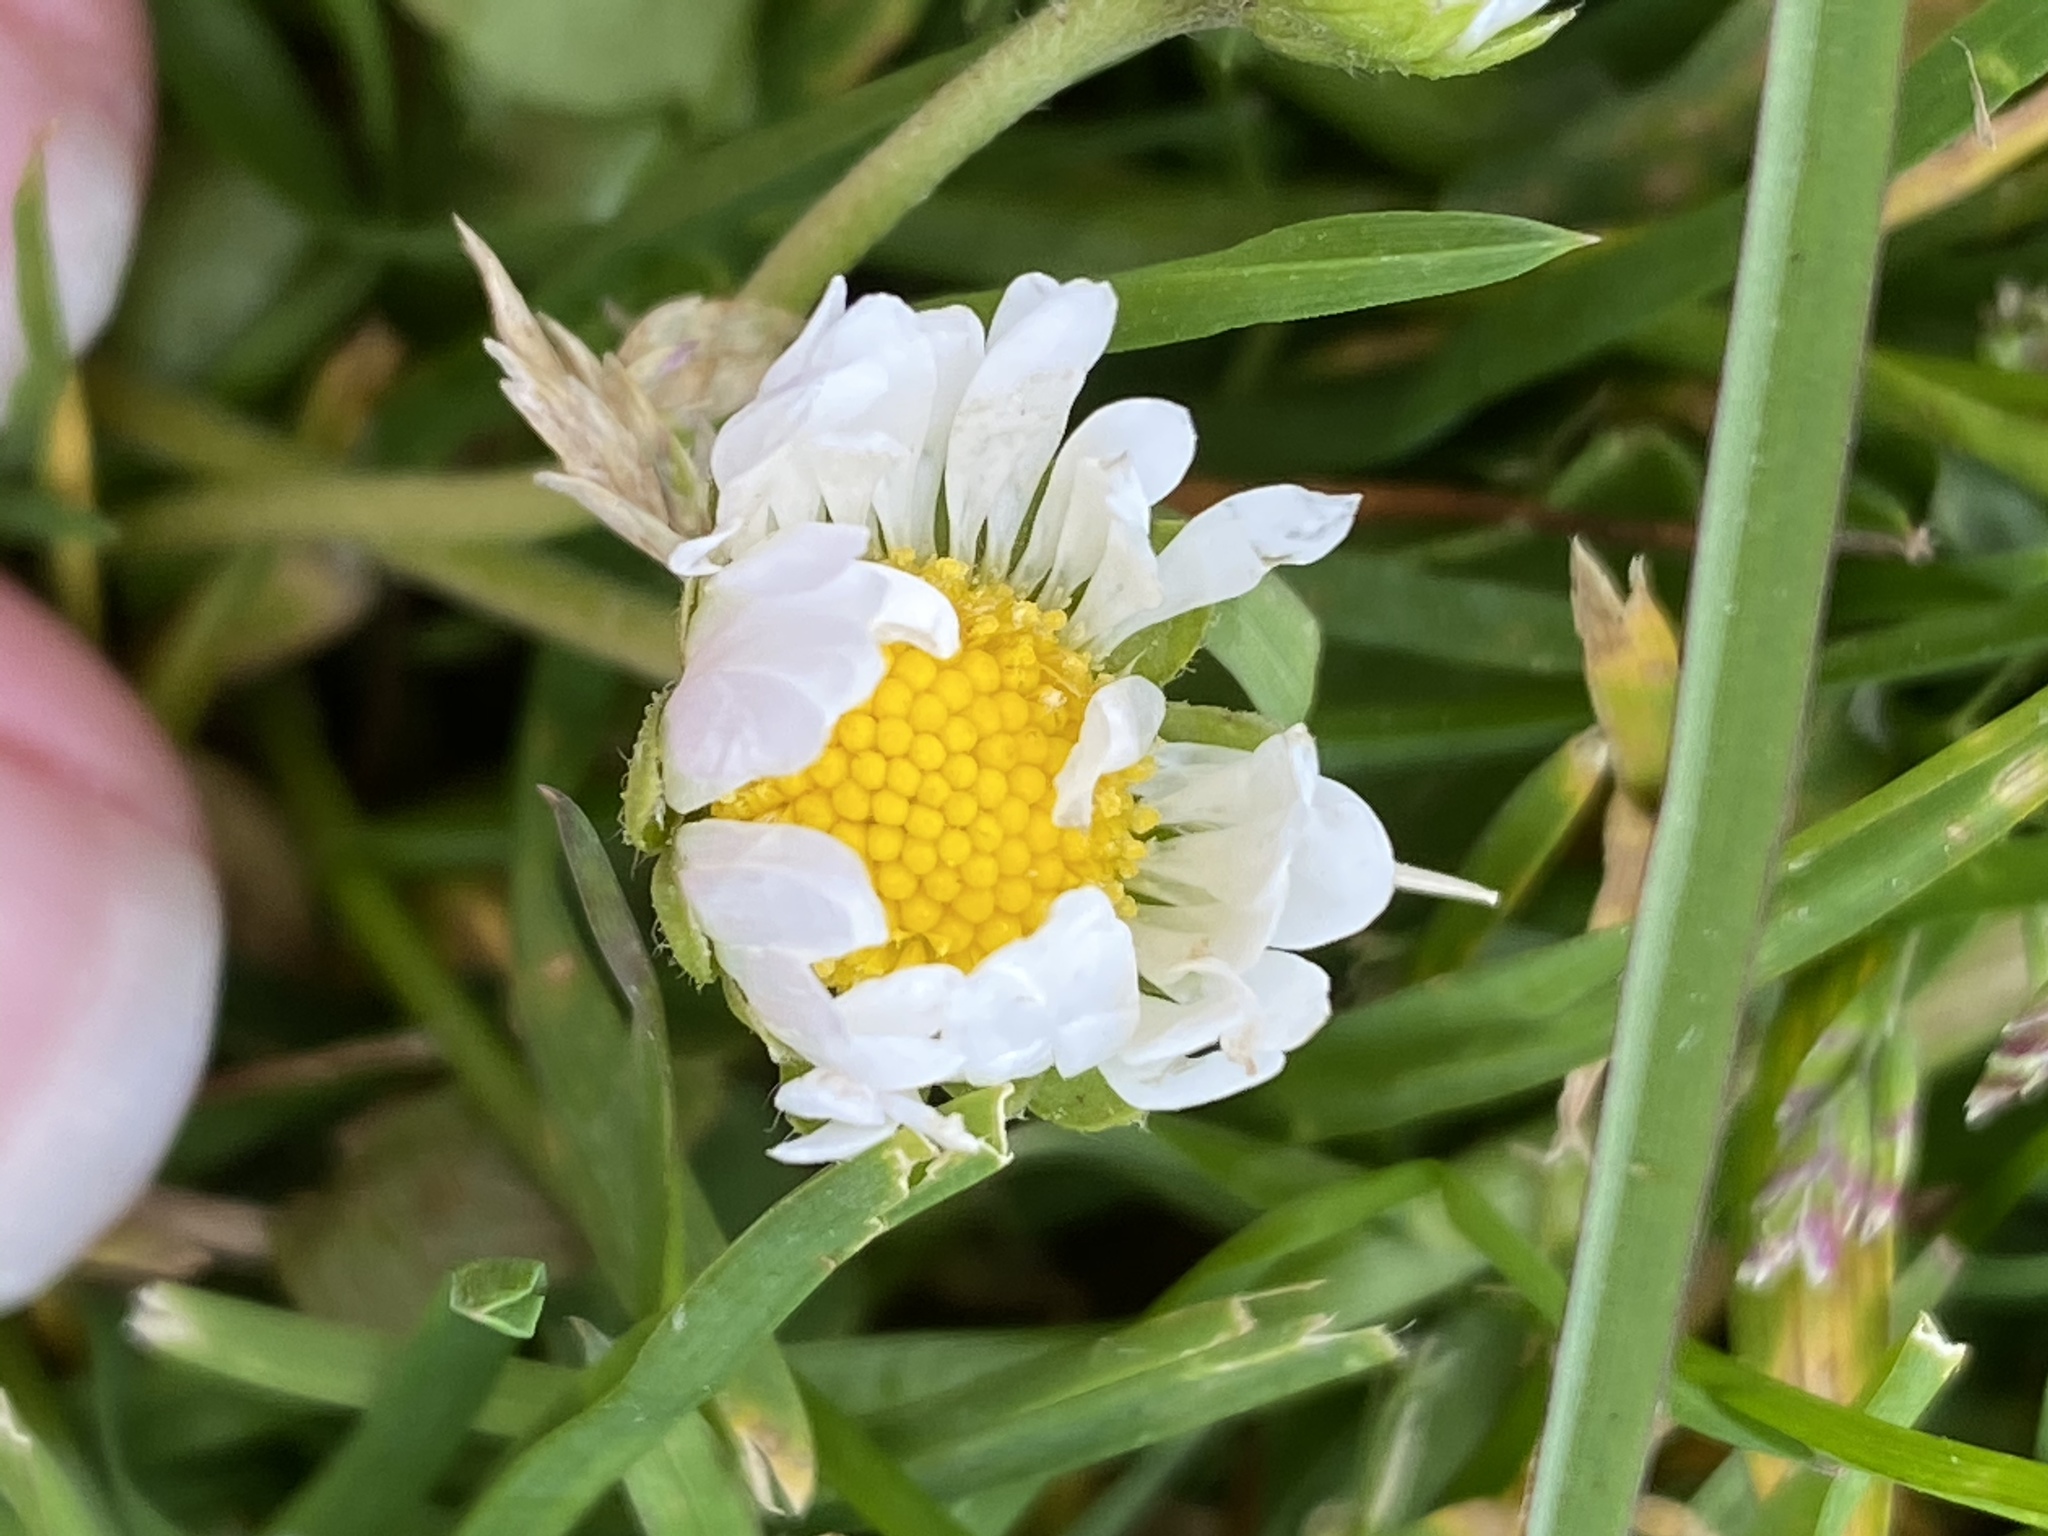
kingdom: Plantae
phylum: Tracheophyta
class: Magnoliopsida
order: Asterales
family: Asteraceae
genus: Bellis
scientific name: Bellis perennis
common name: Lawndaisy
